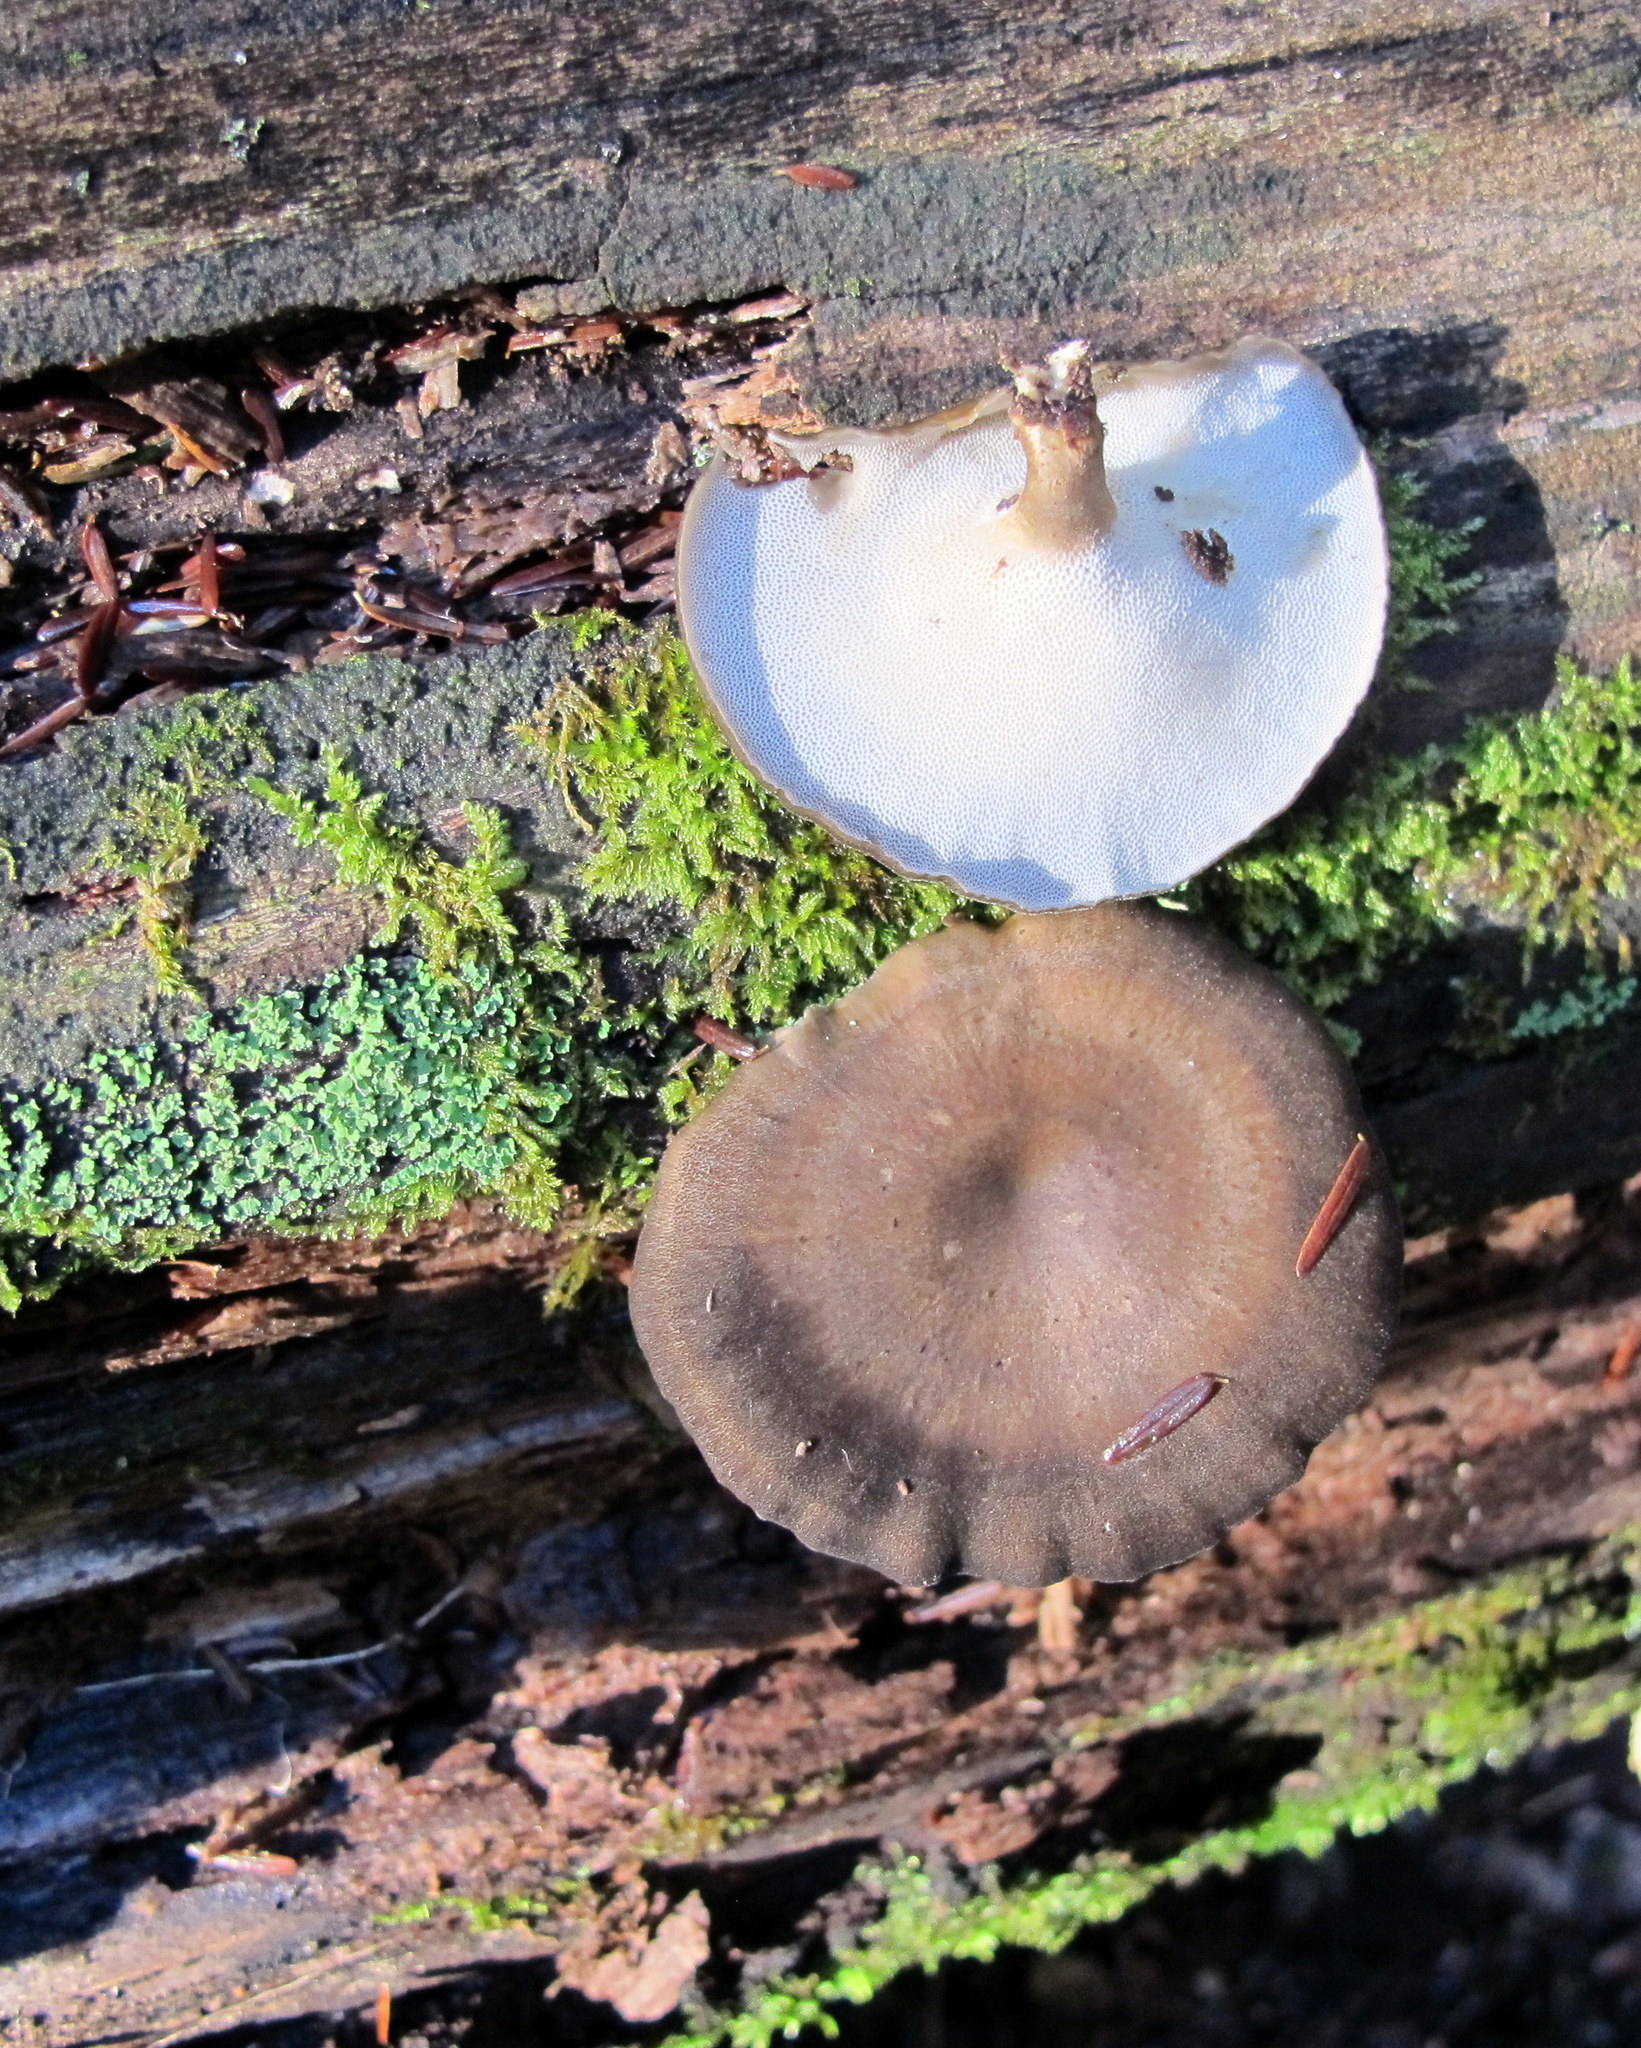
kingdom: Fungi
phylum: Basidiomycota
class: Agaricomycetes
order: Polyporales
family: Polyporaceae
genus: Lentinus
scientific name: Lentinus brumalis
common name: Winter polypore
